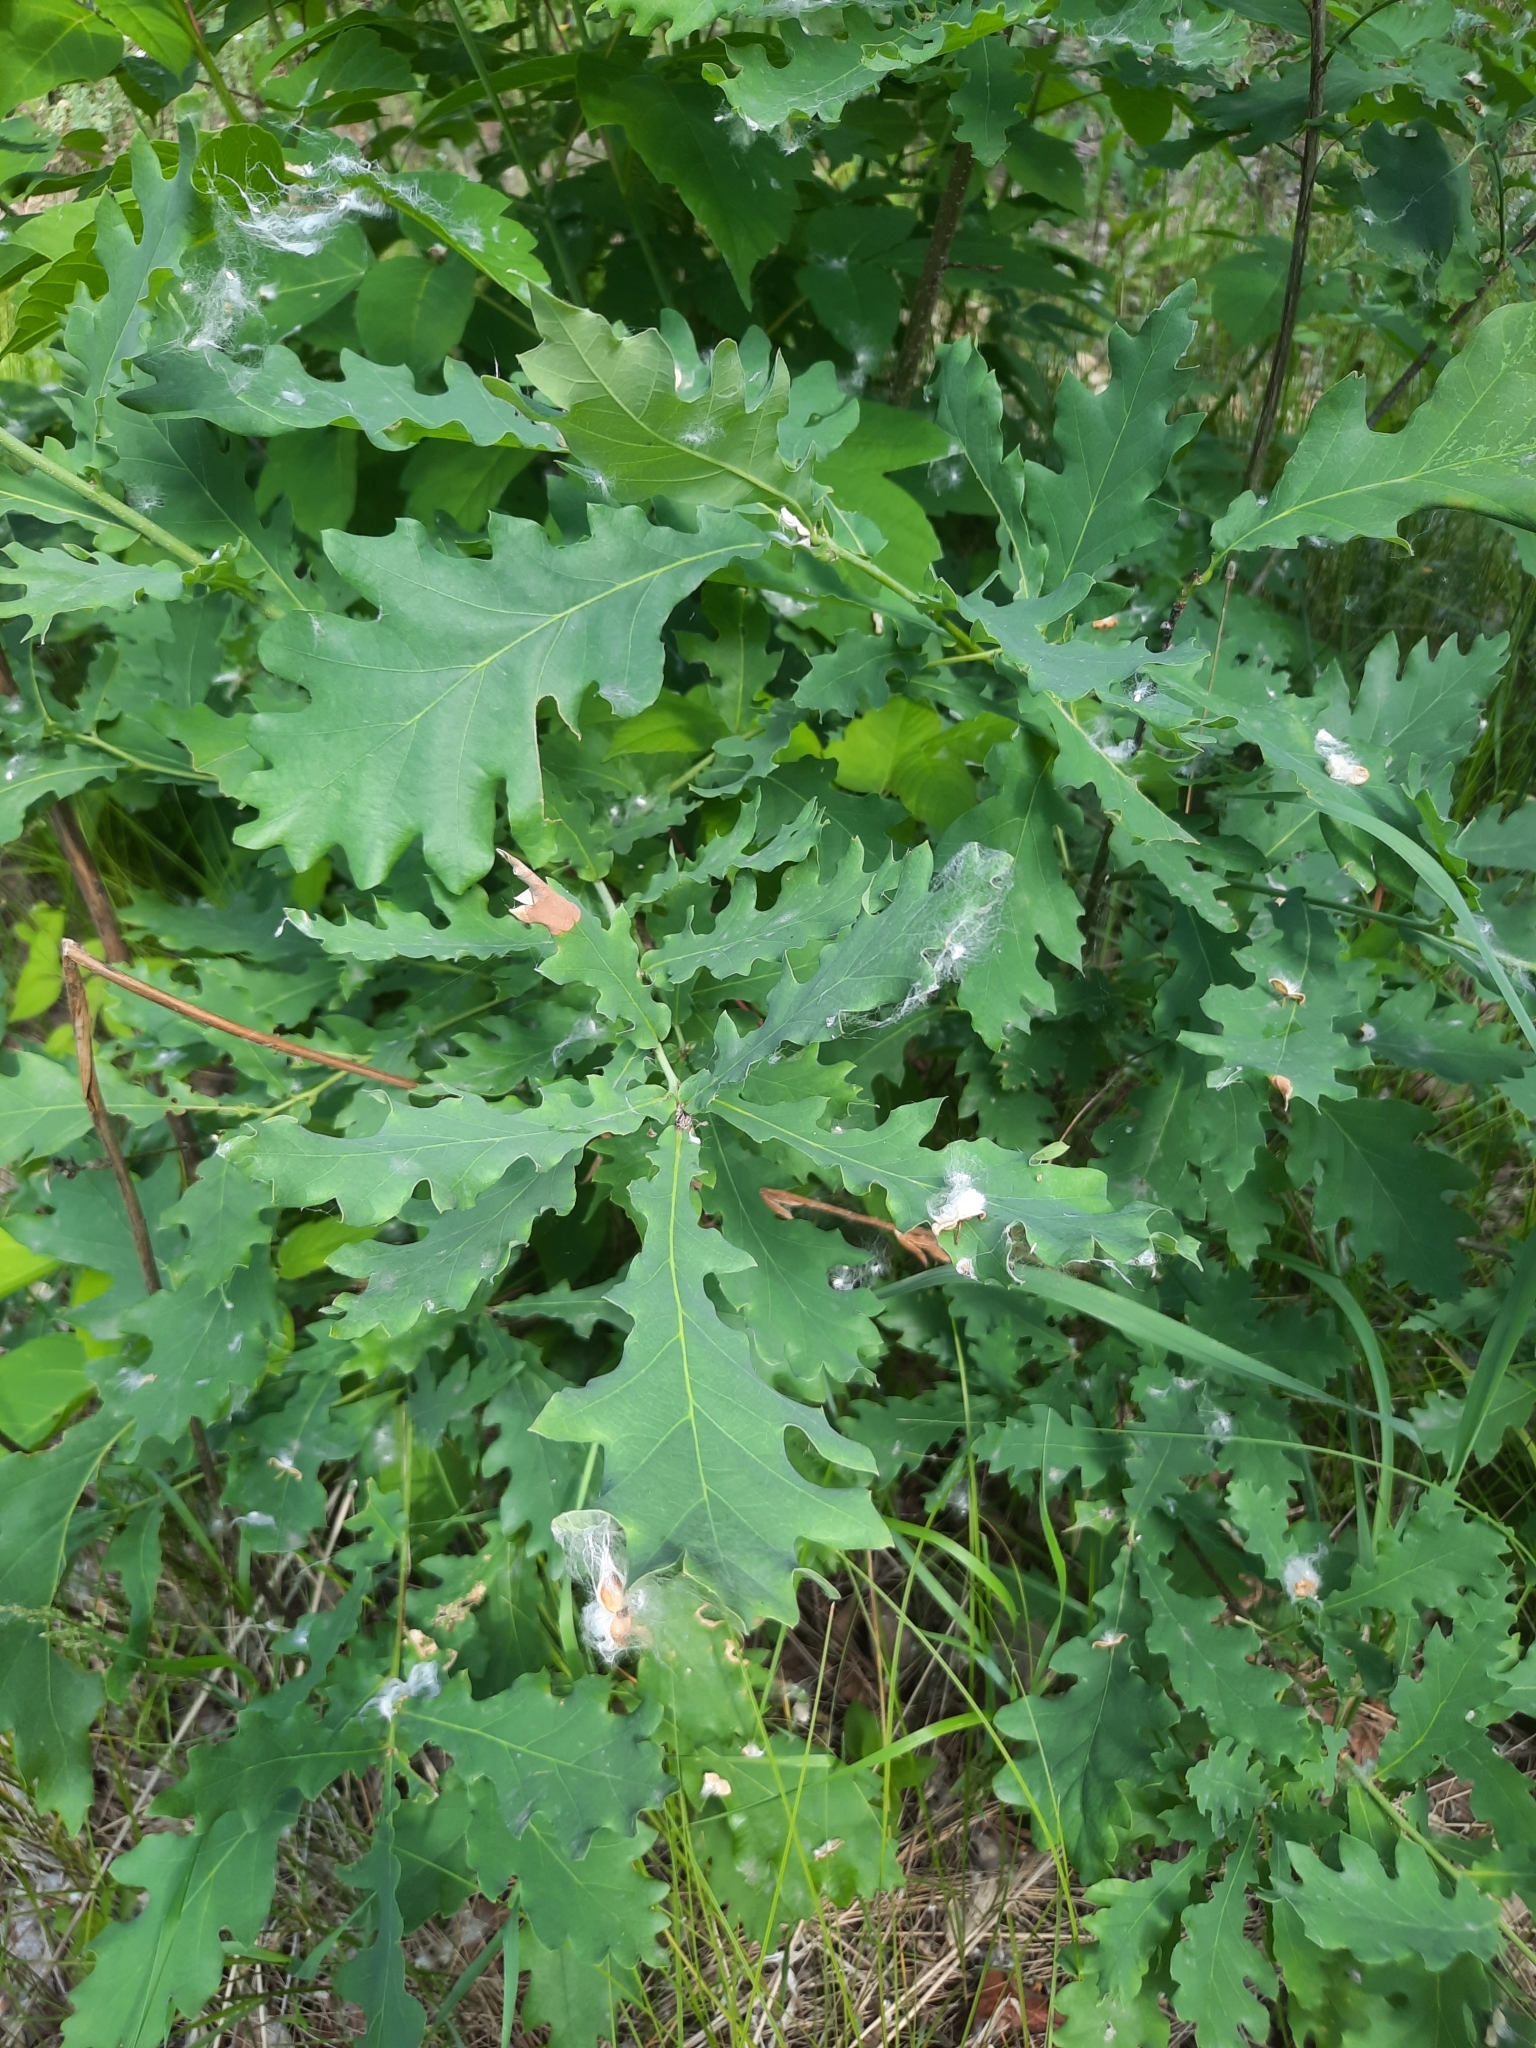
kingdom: Plantae
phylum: Tracheophyta
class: Magnoliopsida
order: Fagales
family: Fagaceae
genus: Quercus
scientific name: Quercus robur
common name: Pedunculate oak
